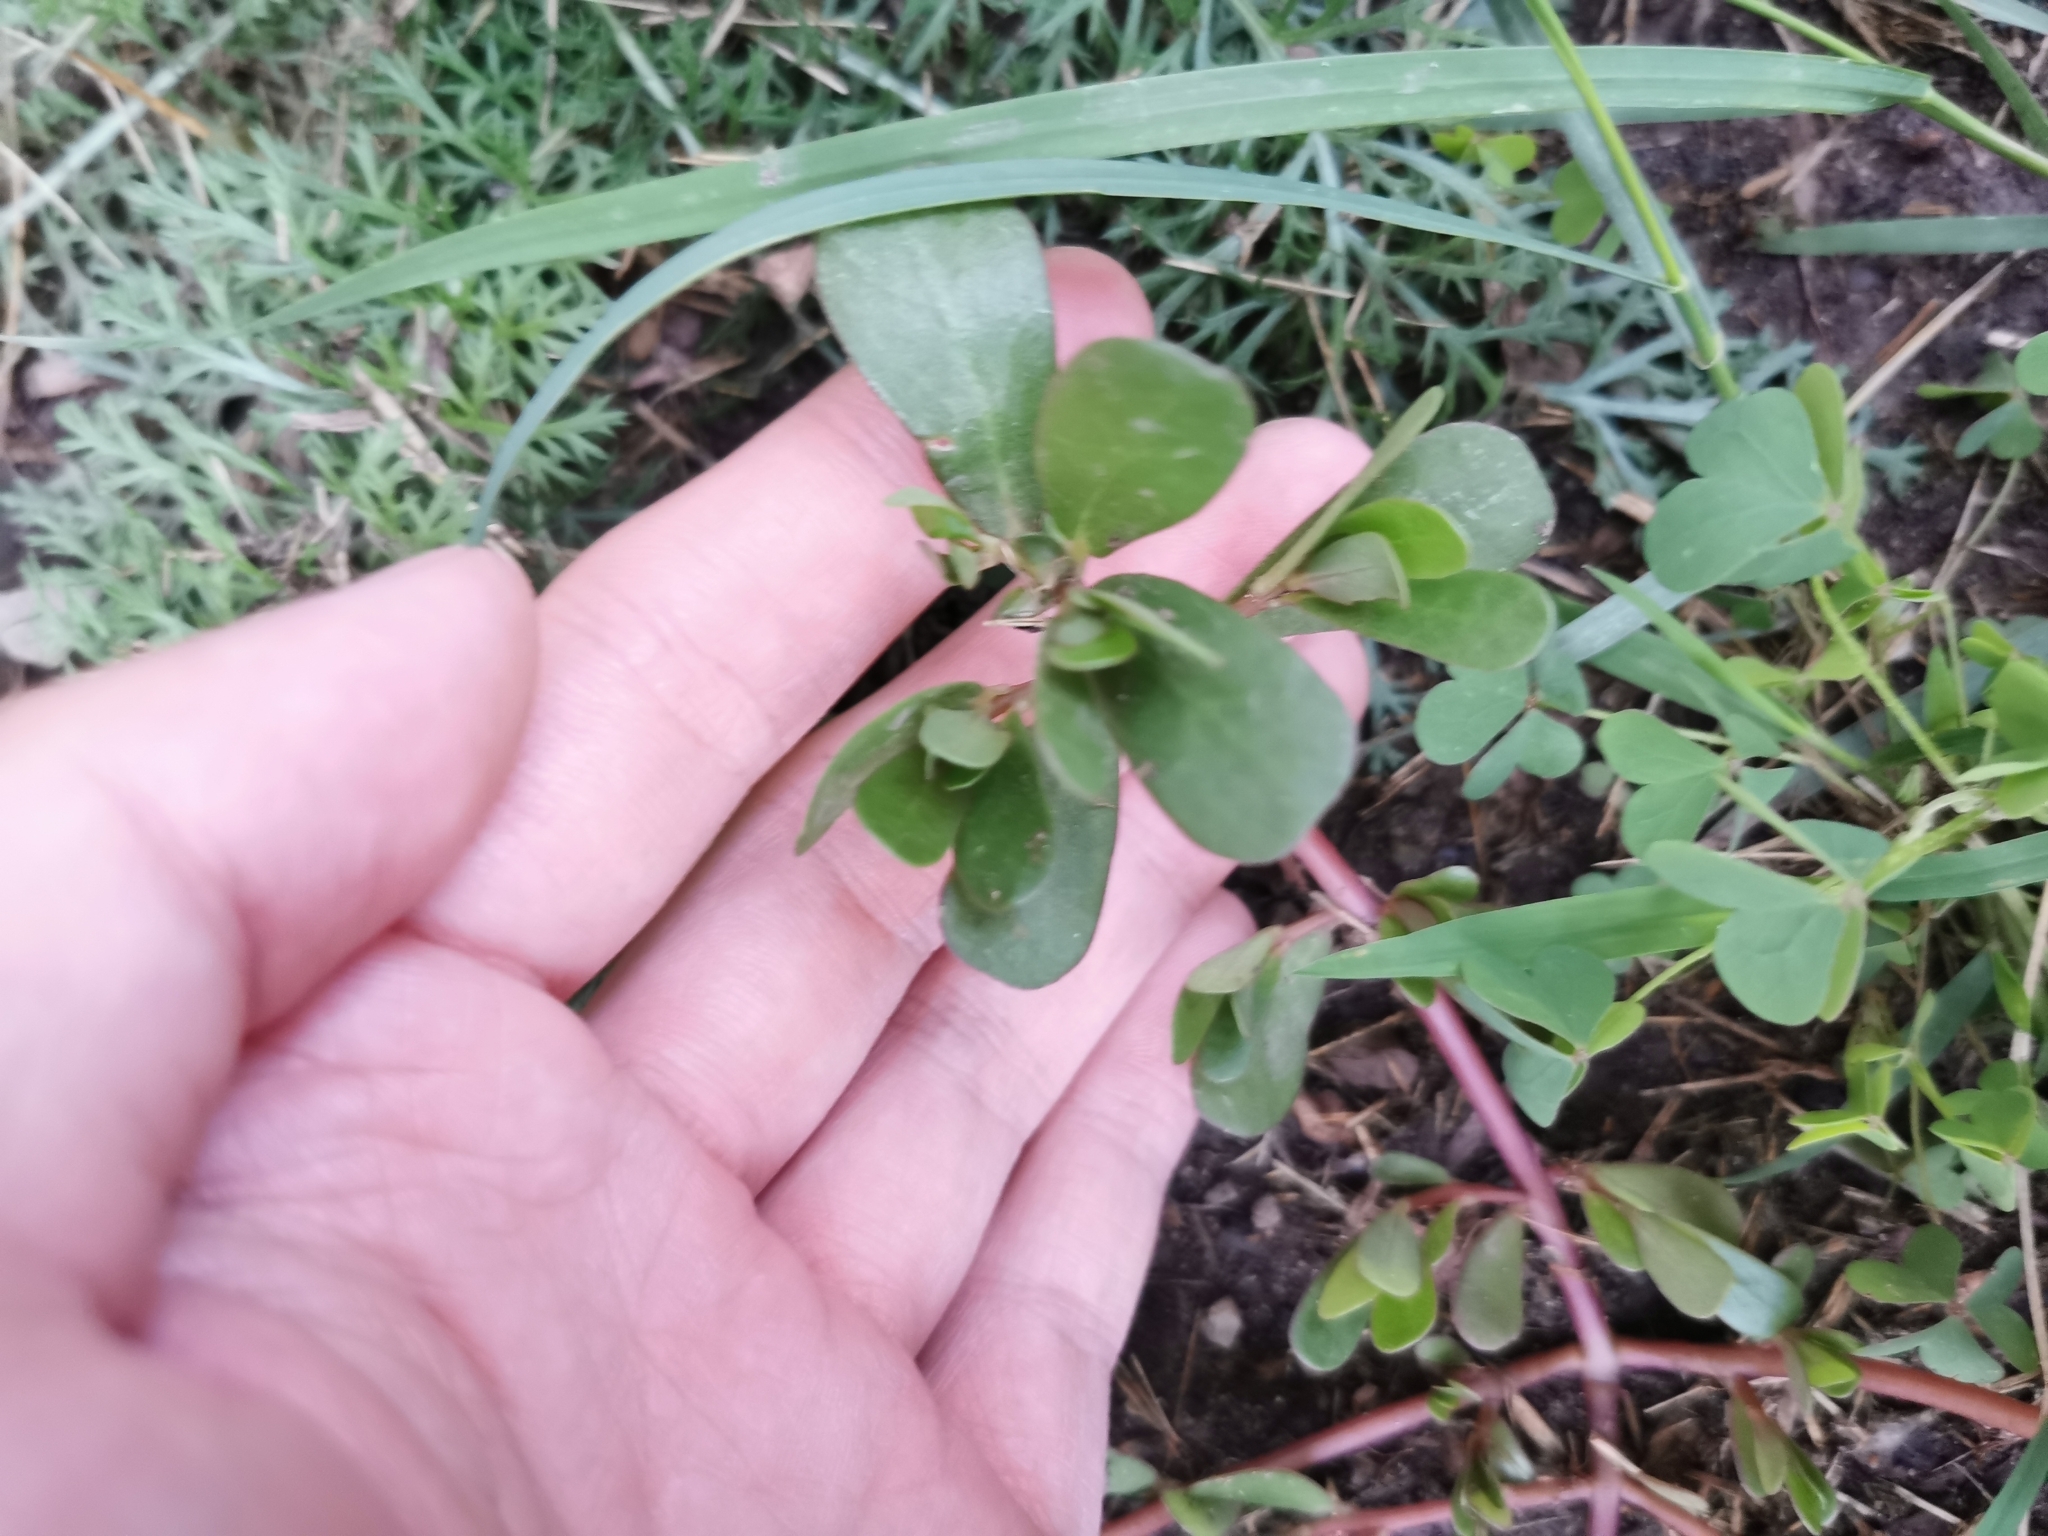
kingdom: Plantae
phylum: Tracheophyta
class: Magnoliopsida
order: Caryophyllales
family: Portulacaceae
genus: Portulaca
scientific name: Portulaca oleracea
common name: Common purslane
